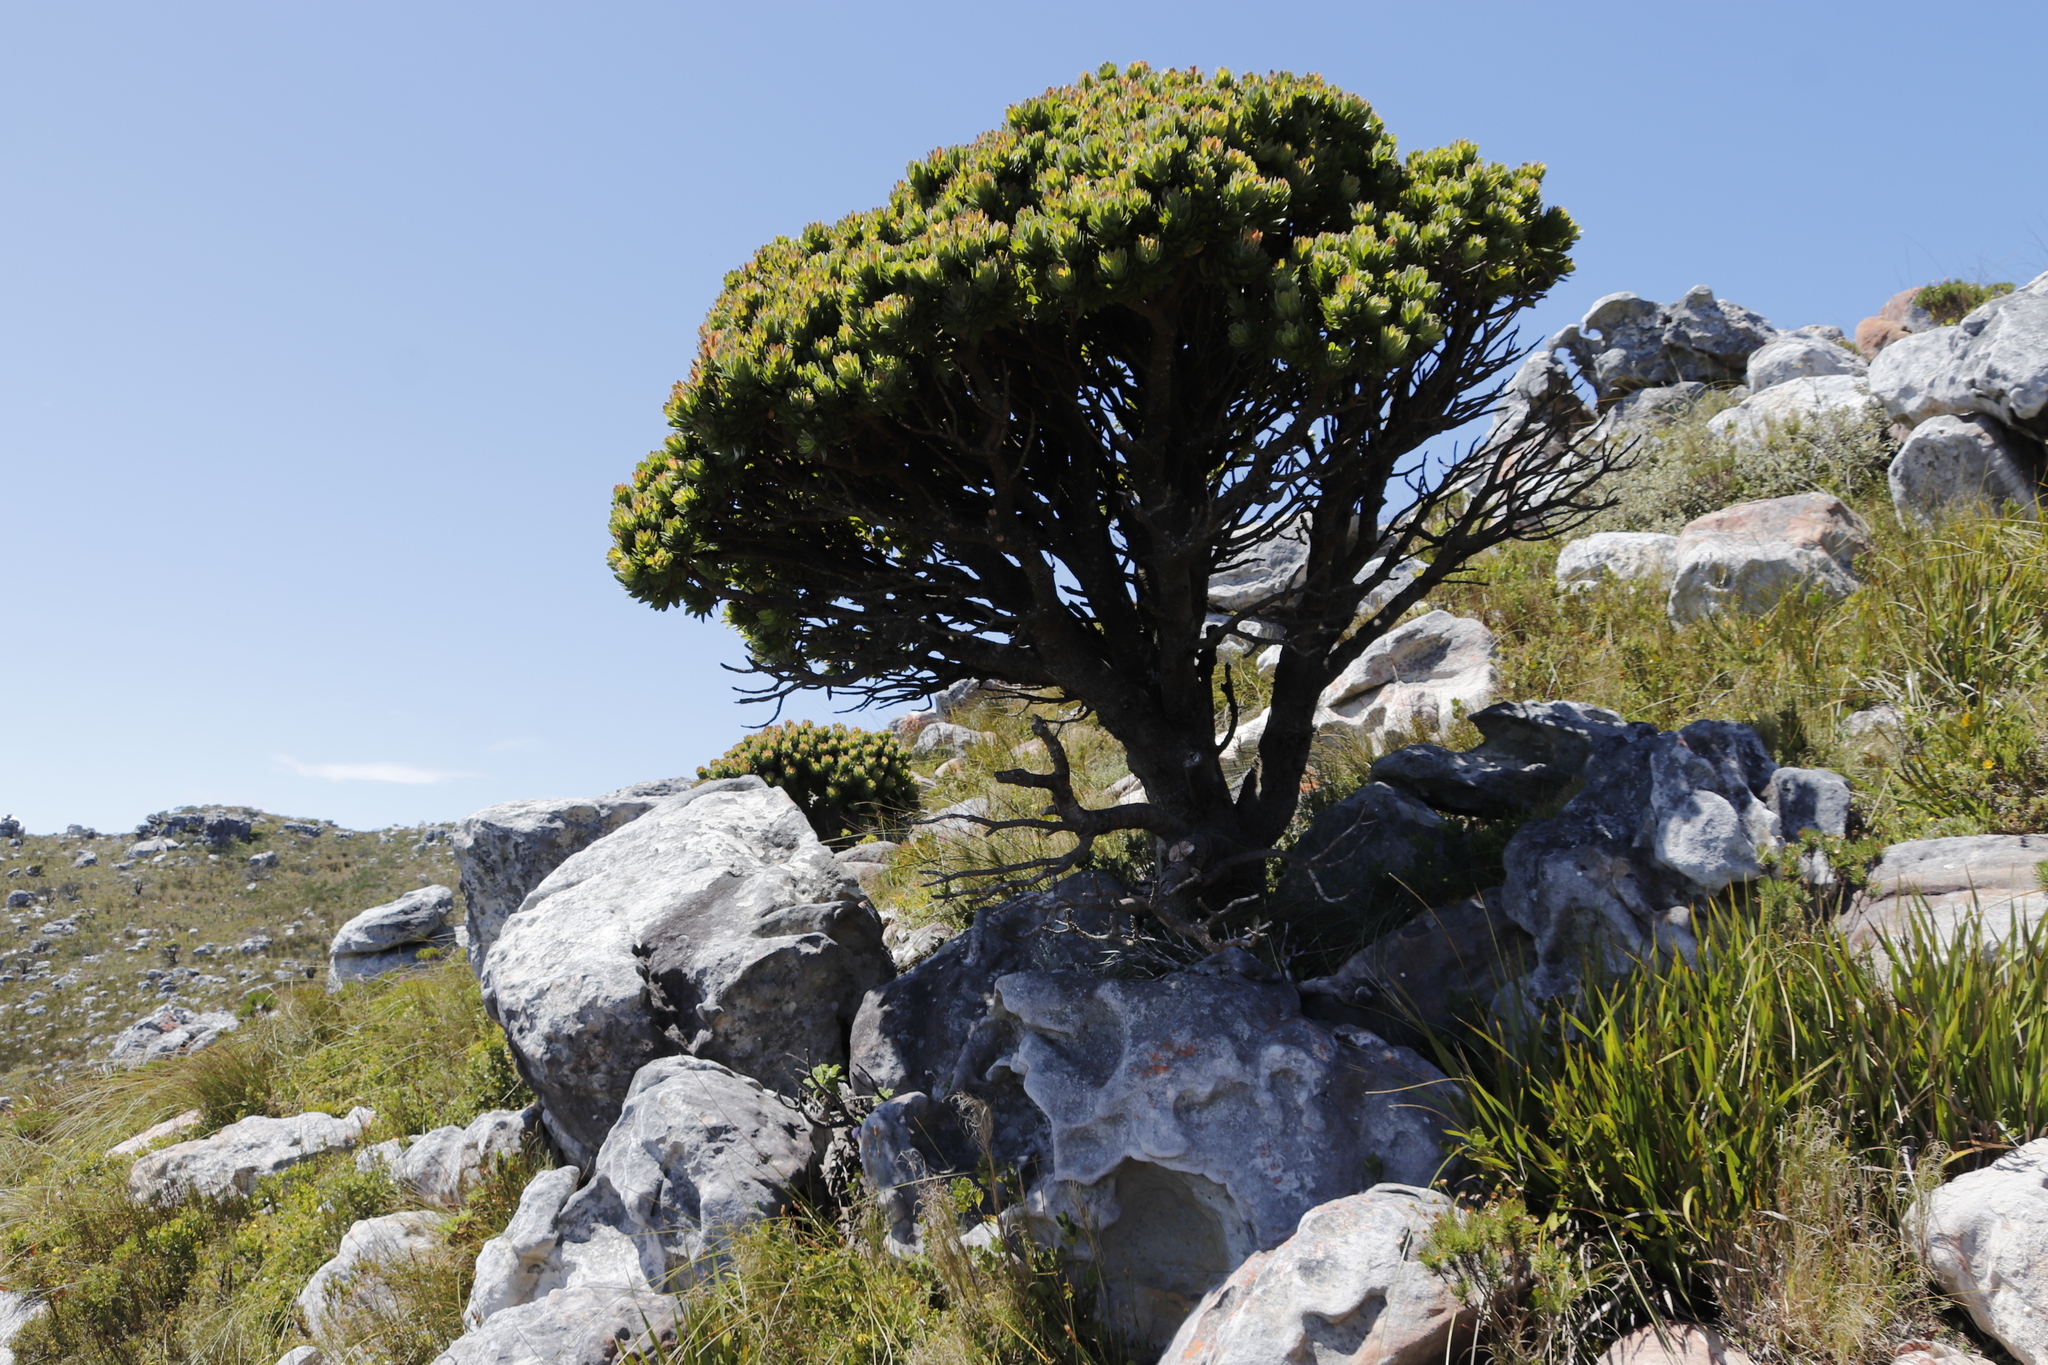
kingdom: Plantae
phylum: Tracheophyta
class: Magnoliopsida
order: Proteales
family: Proteaceae
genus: Mimetes
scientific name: Mimetes fimbriifolius
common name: Fringed bottlebrush
